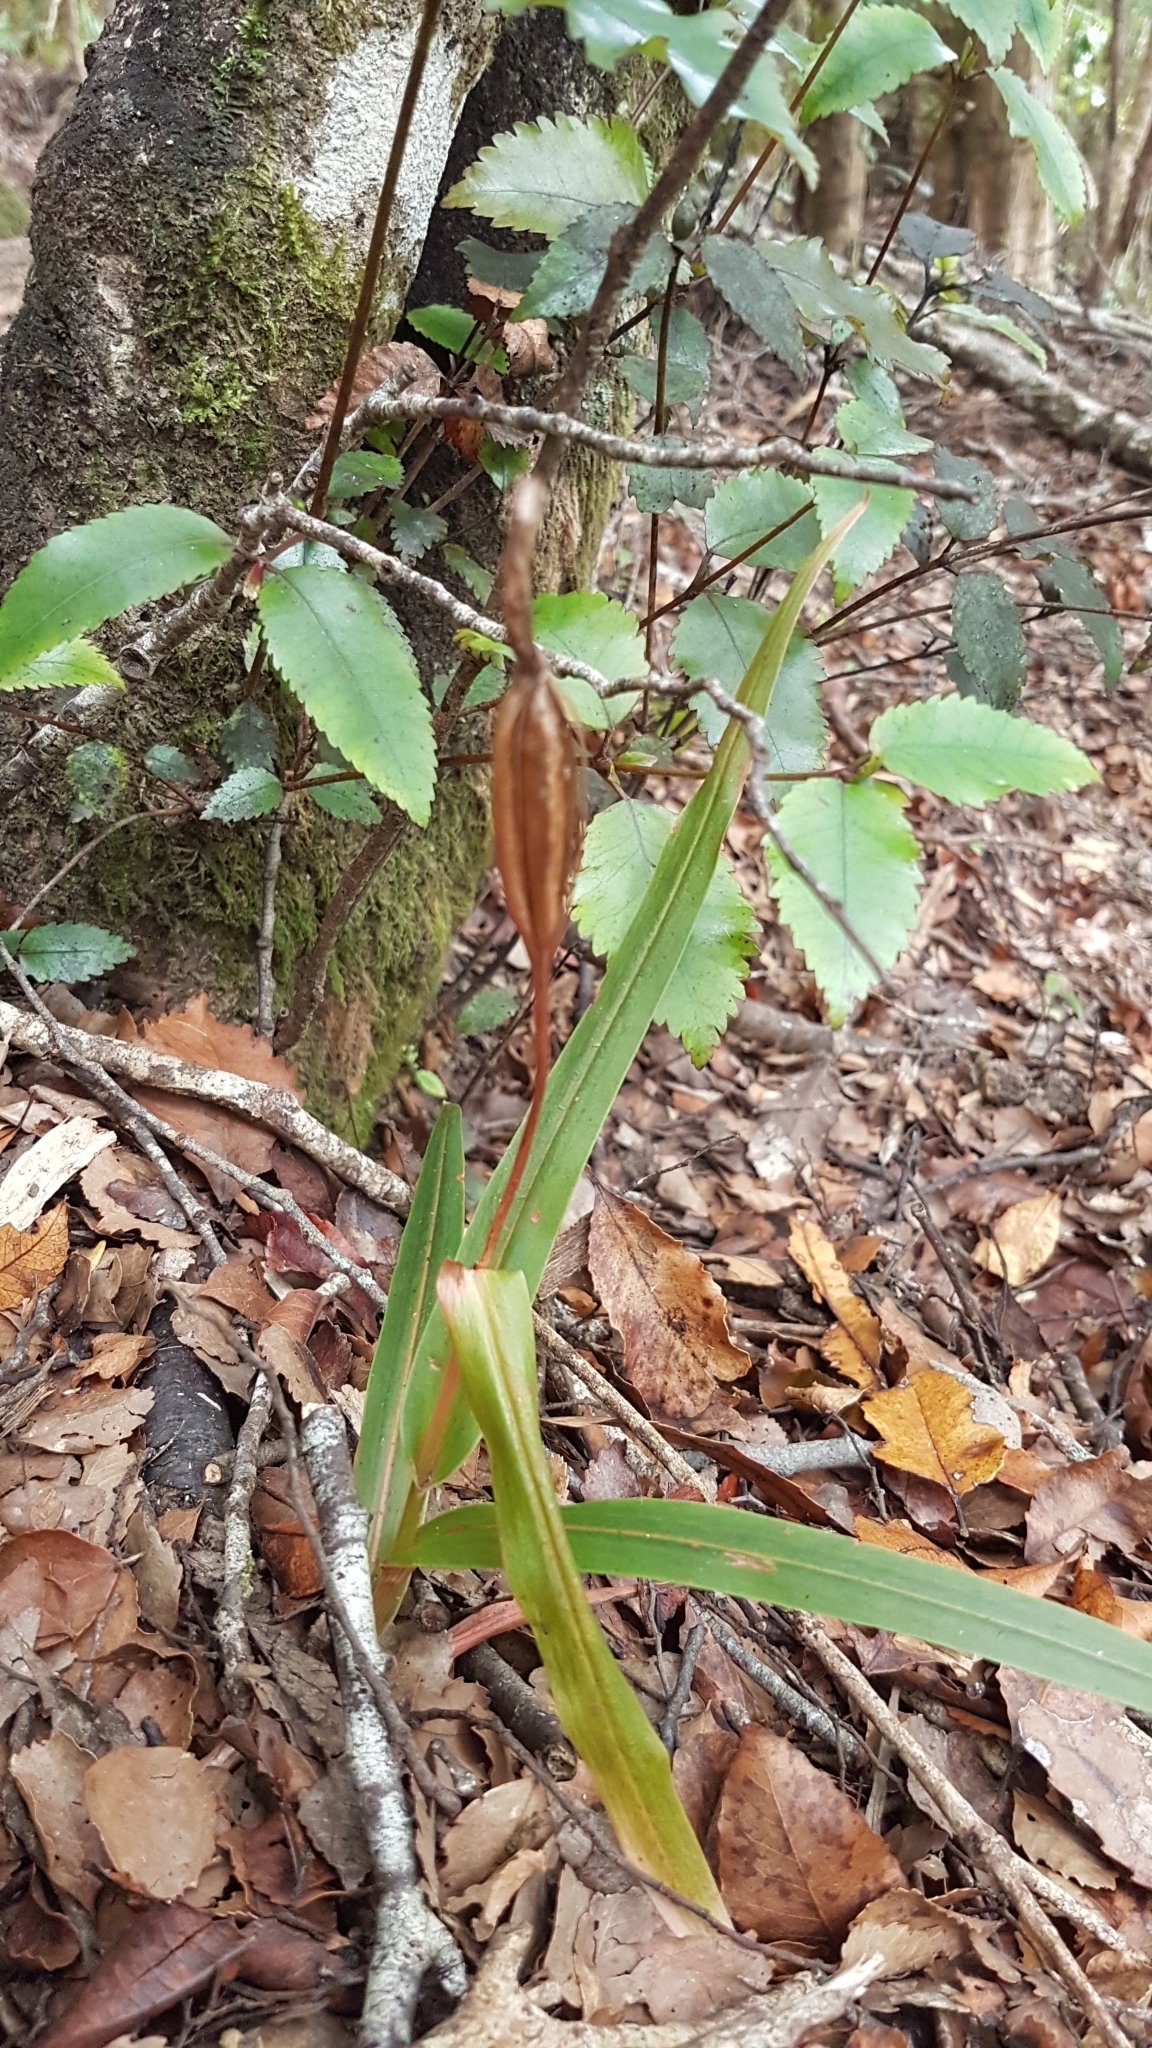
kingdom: Plantae
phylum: Tracheophyta
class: Liliopsida
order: Asparagales
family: Orchidaceae
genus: Pterostylis
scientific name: Pterostylis cardiostigma
